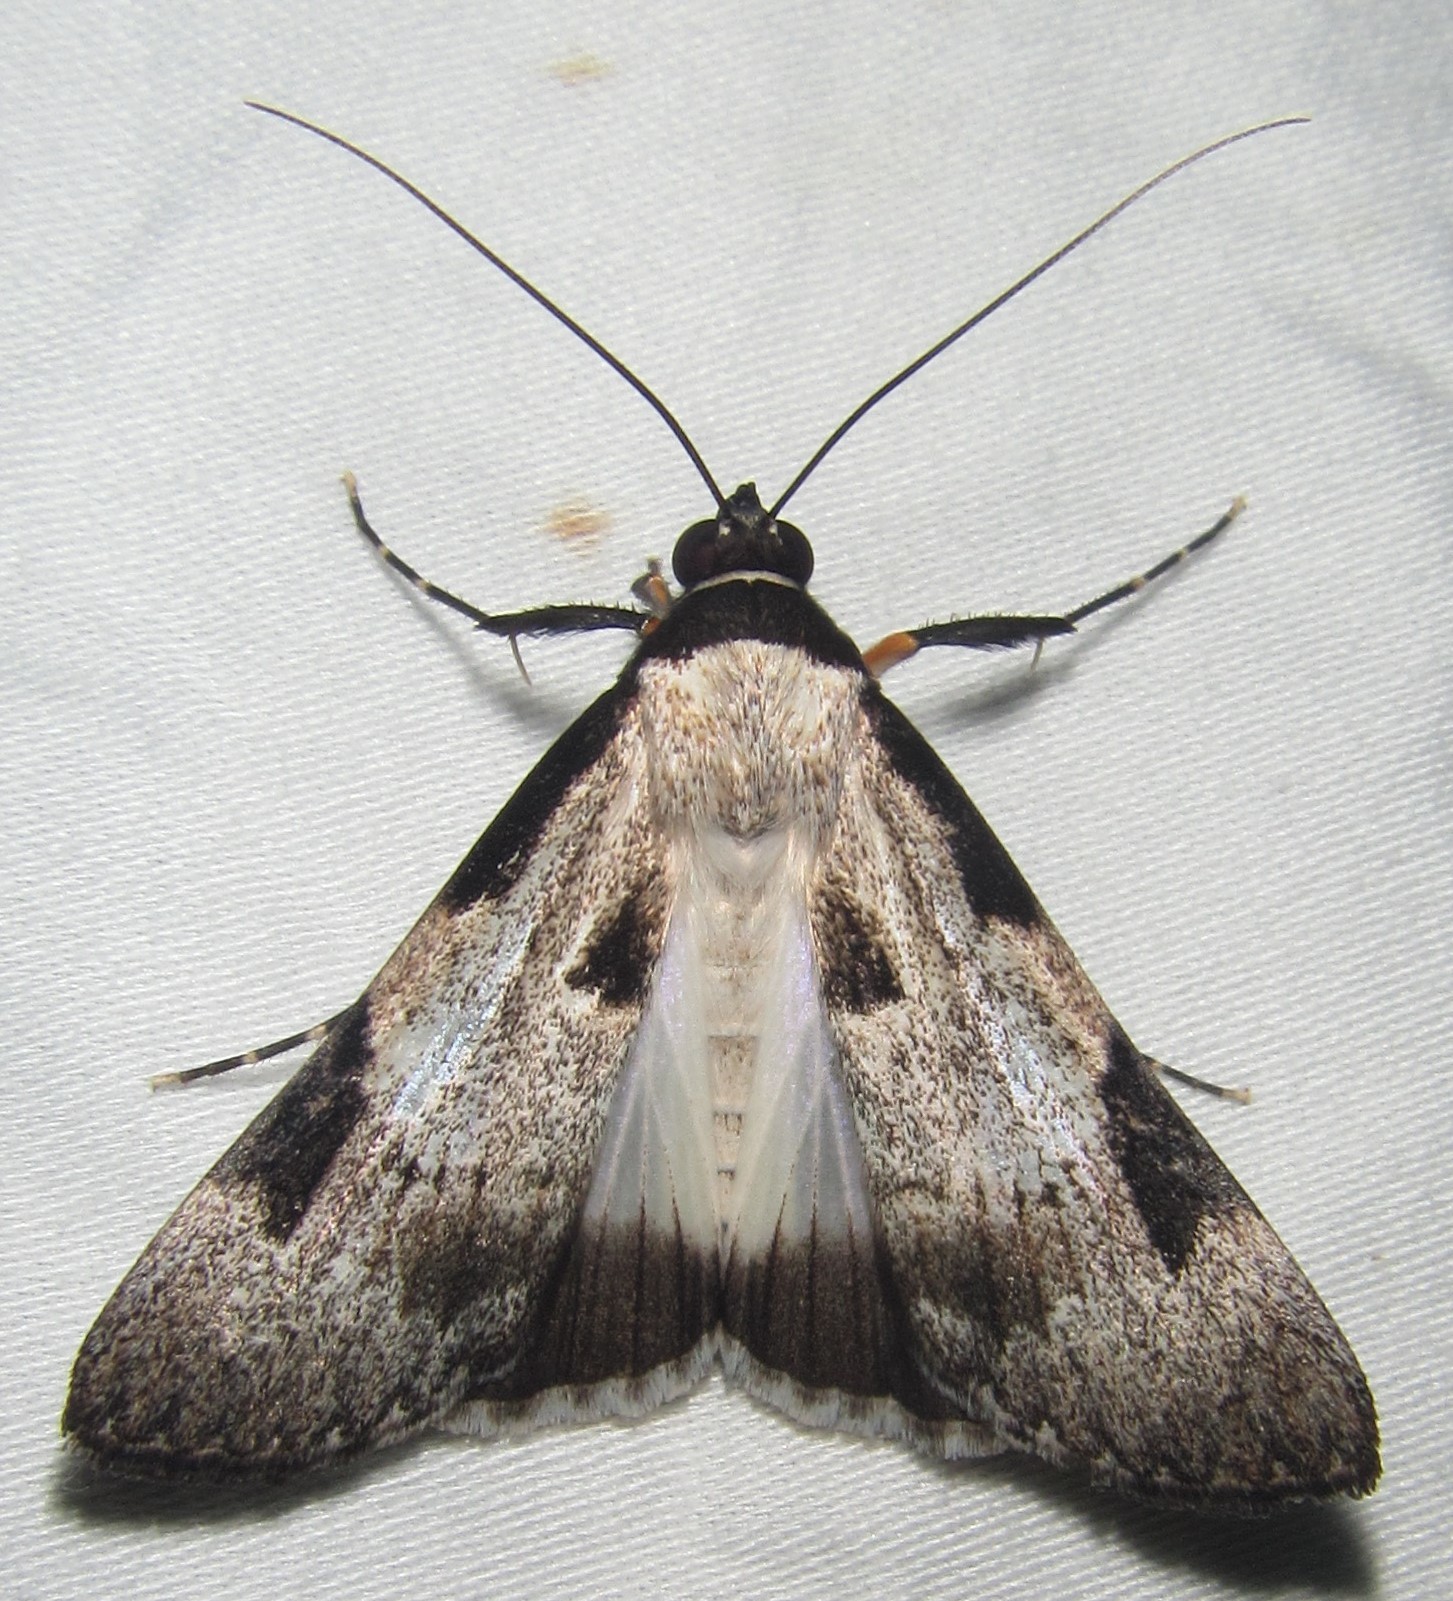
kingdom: Animalia
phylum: Arthropoda
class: Insecta
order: Lepidoptera
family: Erebidae
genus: Audea
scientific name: Audea melanoplaga
